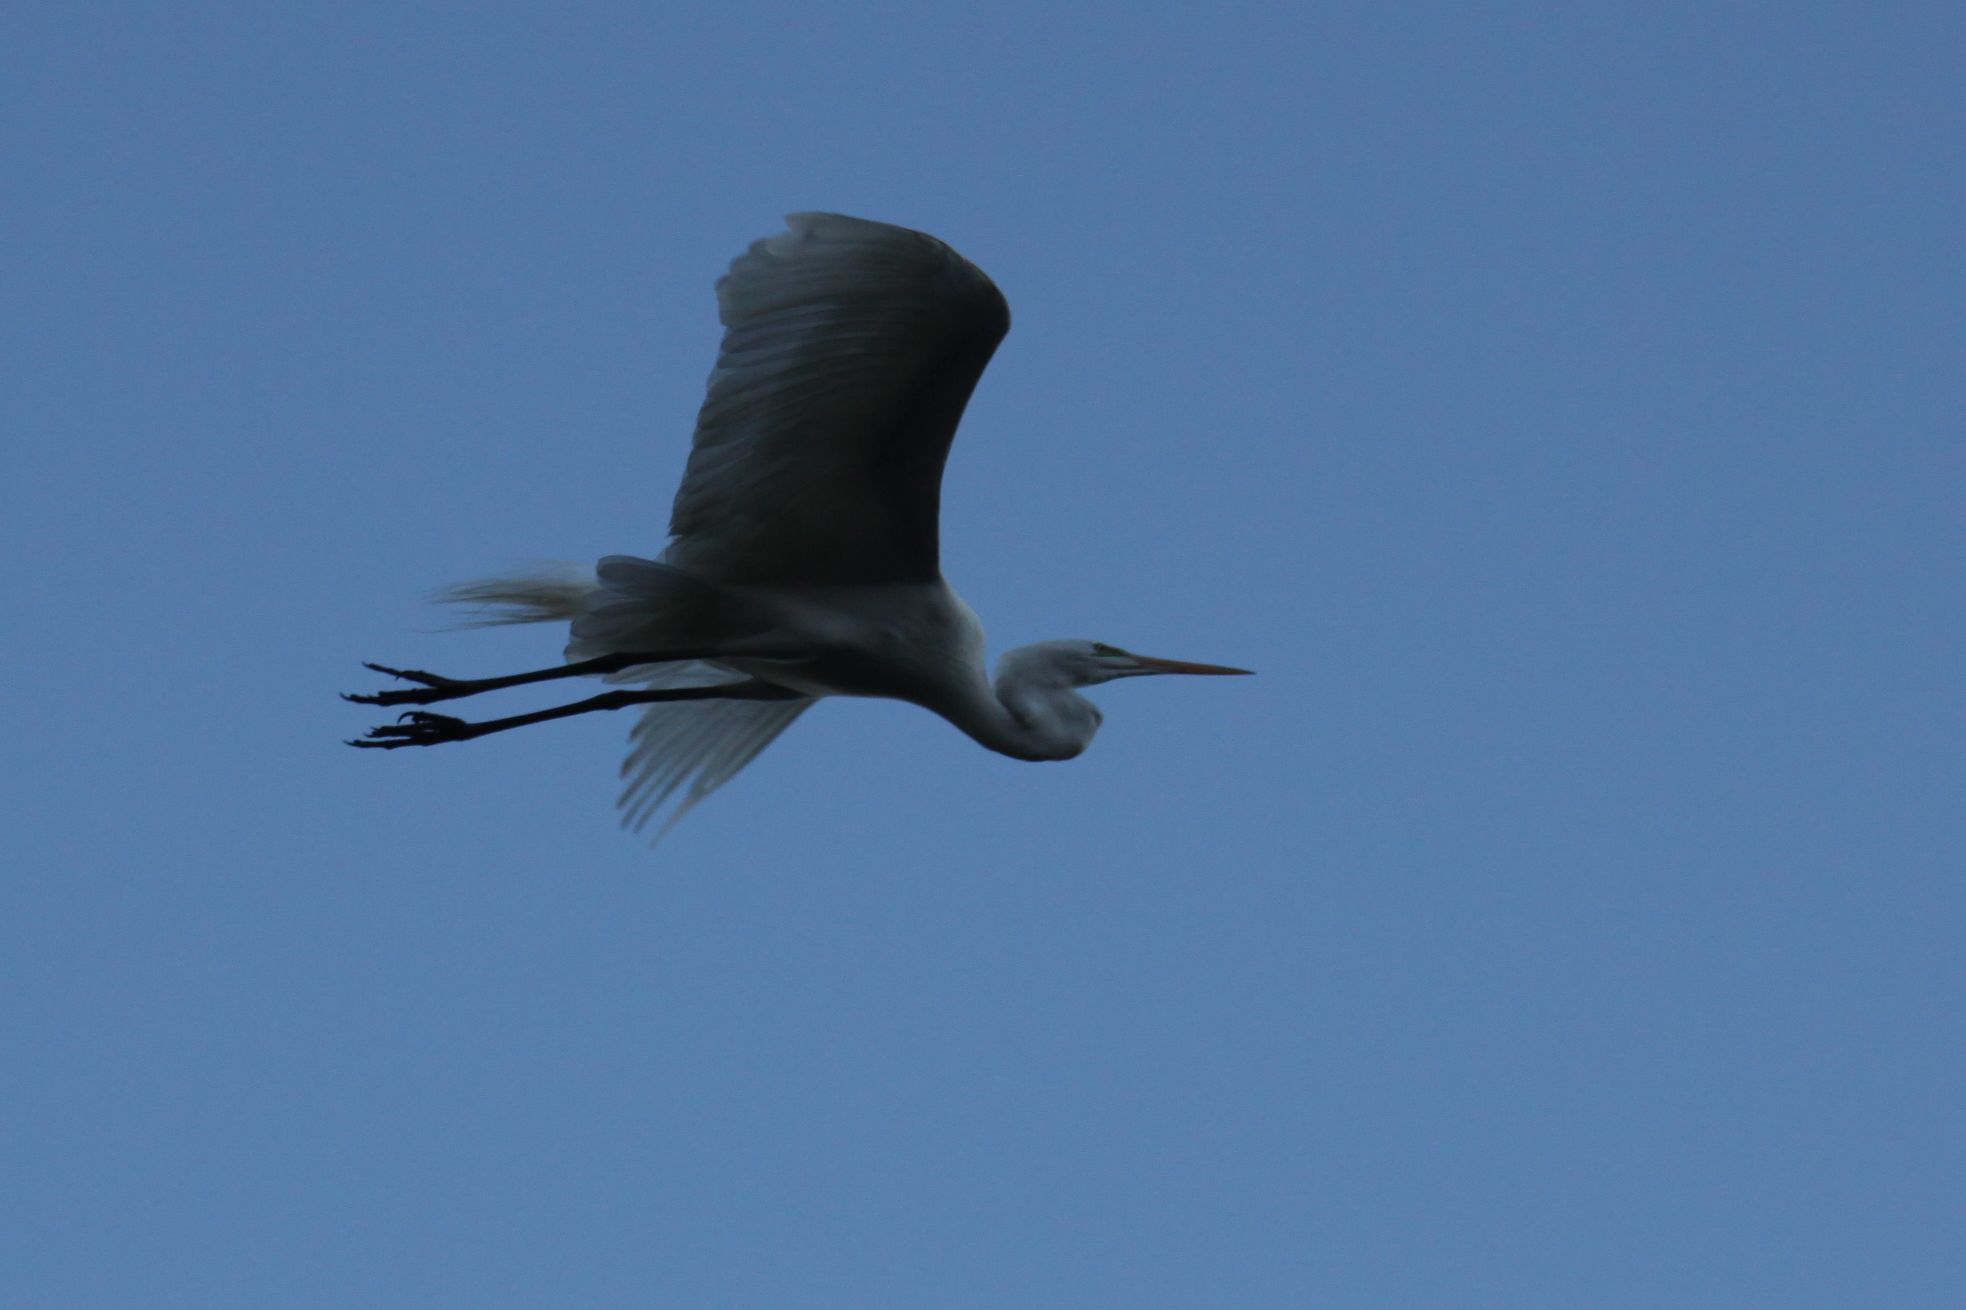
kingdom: Animalia
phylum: Chordata
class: Aves
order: Pelecaniformes
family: Ardeidae
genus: Ardea
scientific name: Ardea alba
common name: Great egret
